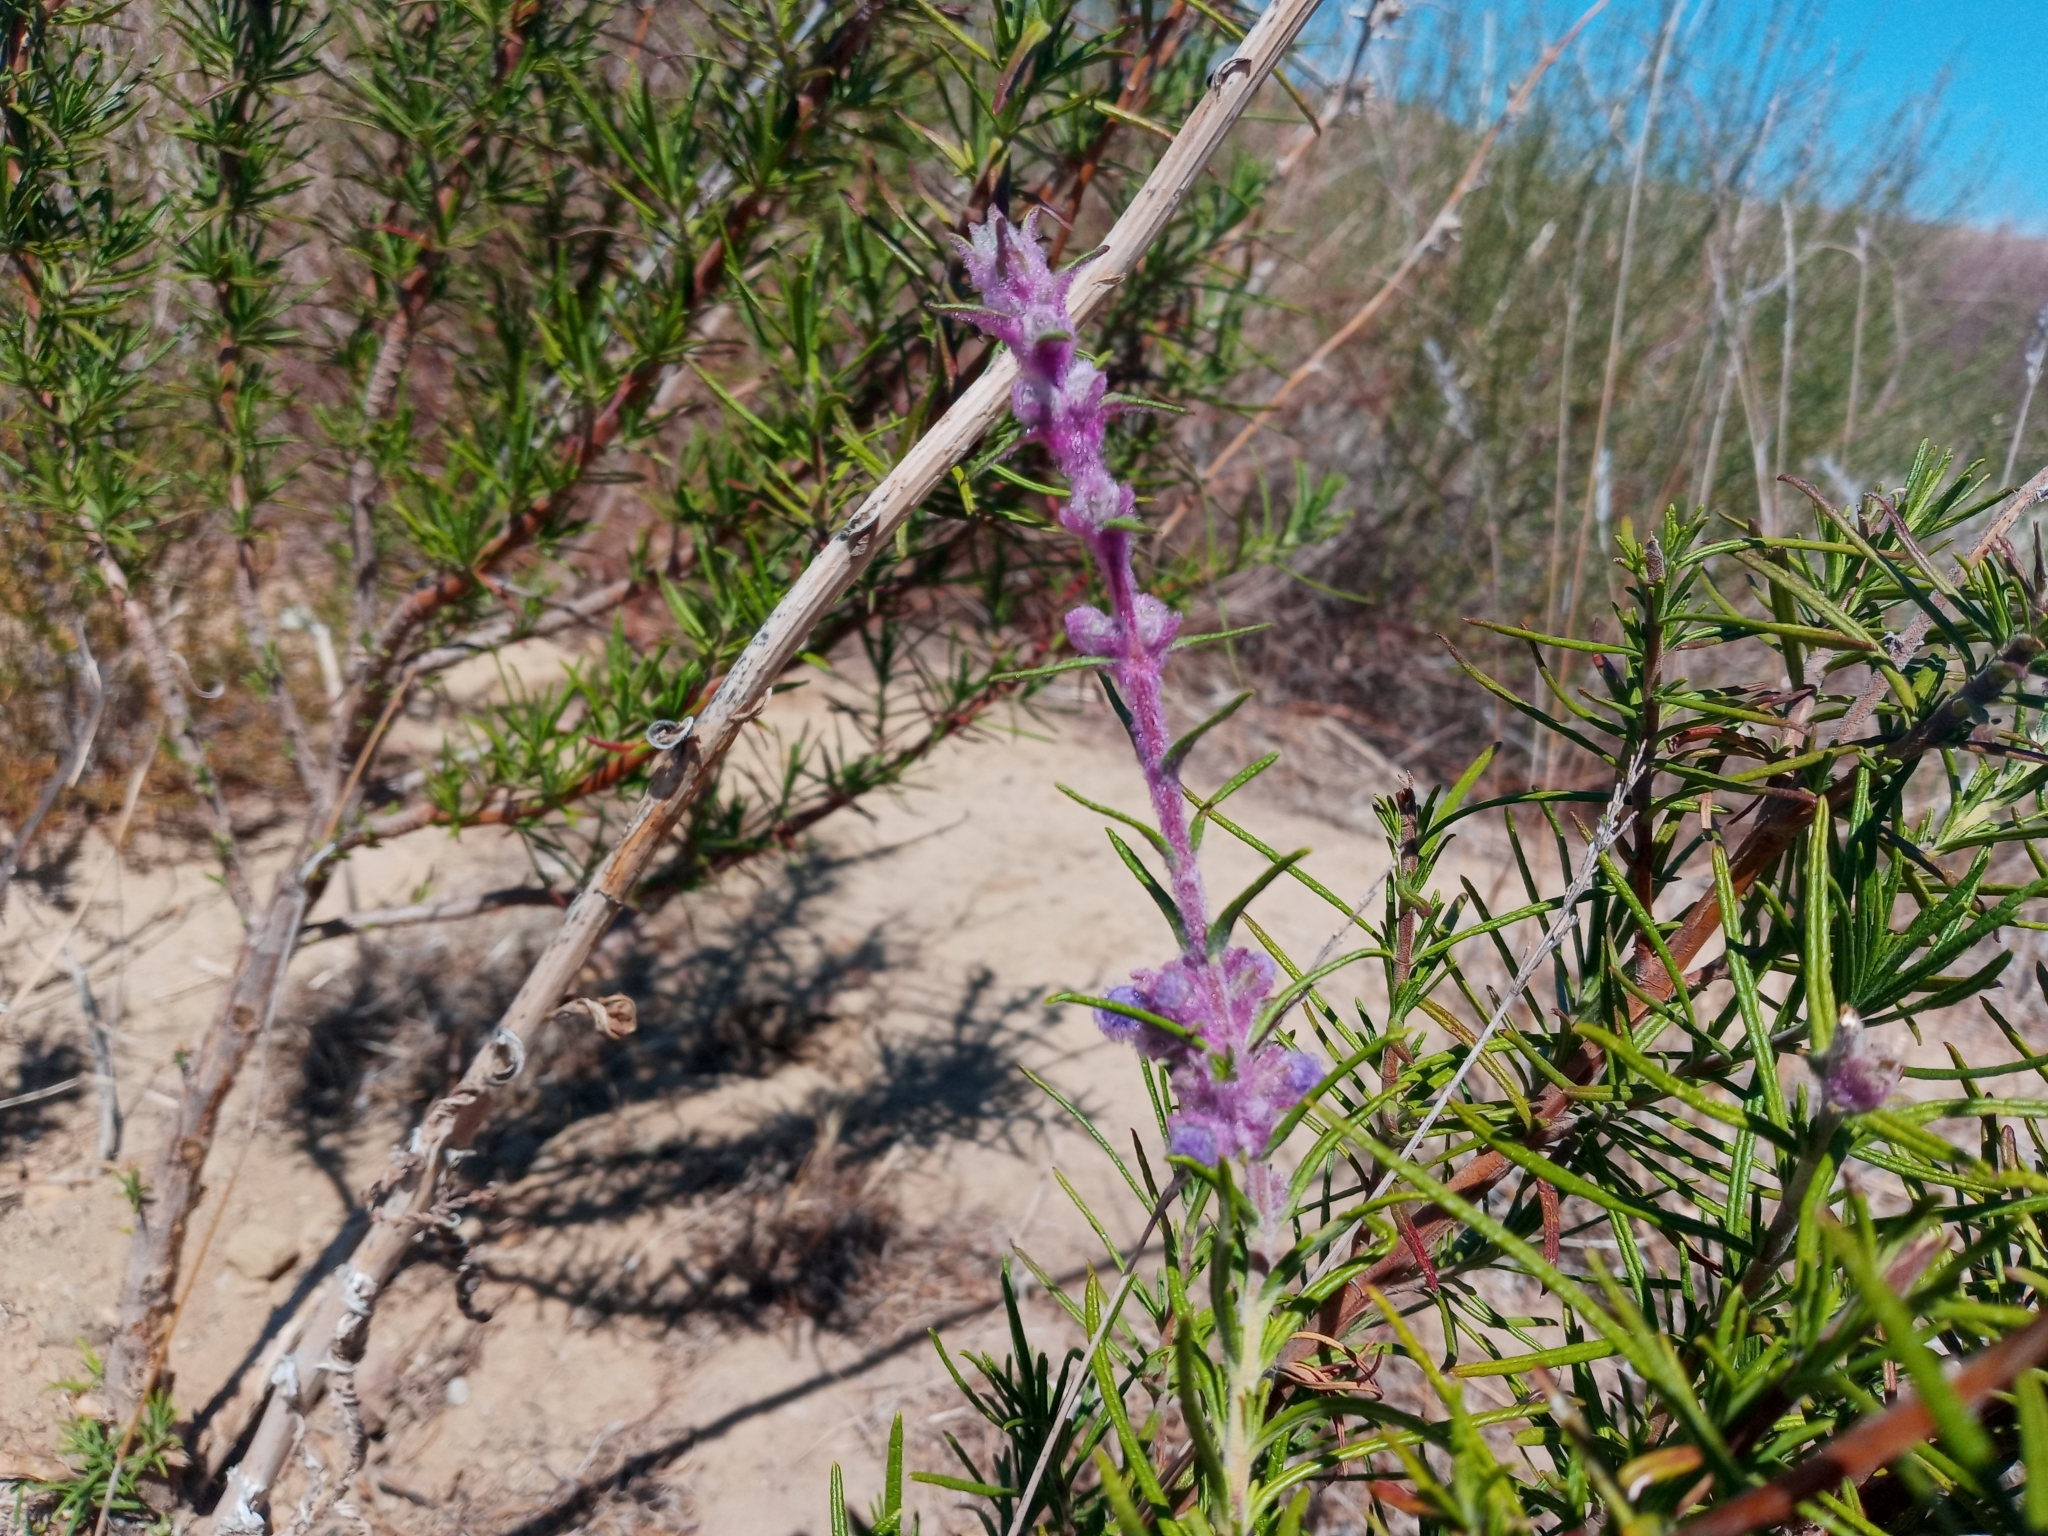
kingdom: Plantae
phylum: Tracheophyta
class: Magnoliopsida
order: Lamiales
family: Lamiaceae
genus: Trichostema
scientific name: Trichostema lanatum
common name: Woolly bluecurls
